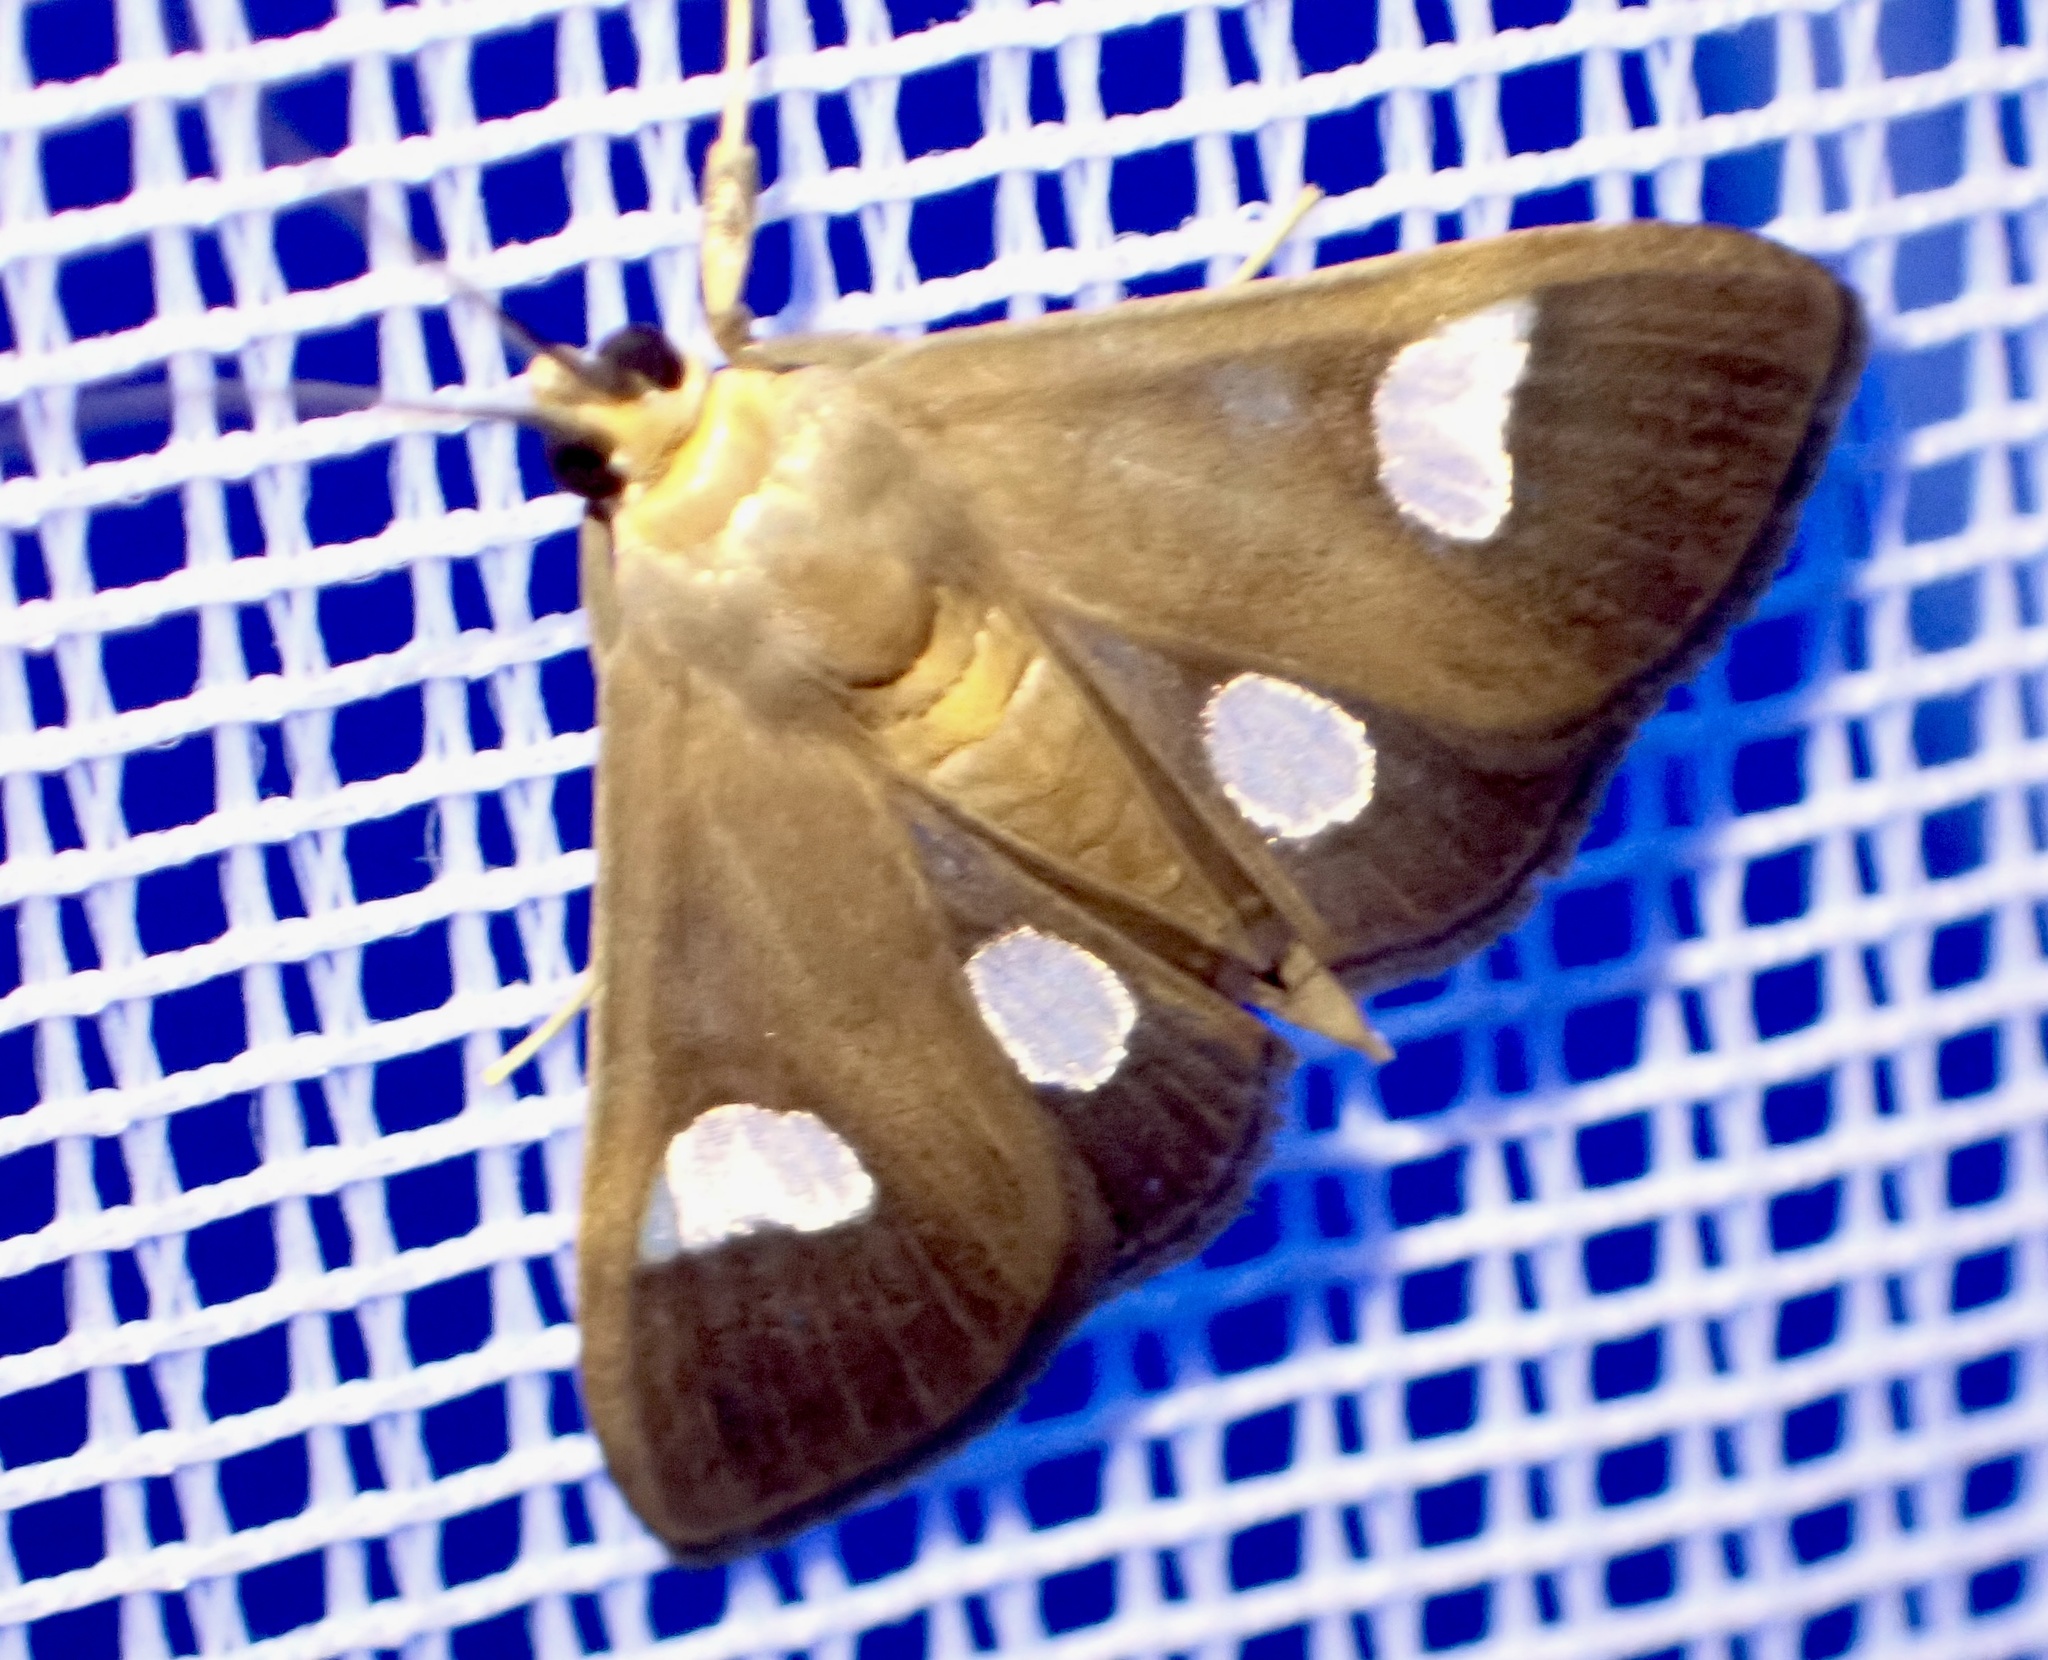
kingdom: Animalia
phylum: Arthropoda
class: Insecta
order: Lepidoptera
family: Crambidae
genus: Ulopeza
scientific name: Ulopeza flavicepsalis
